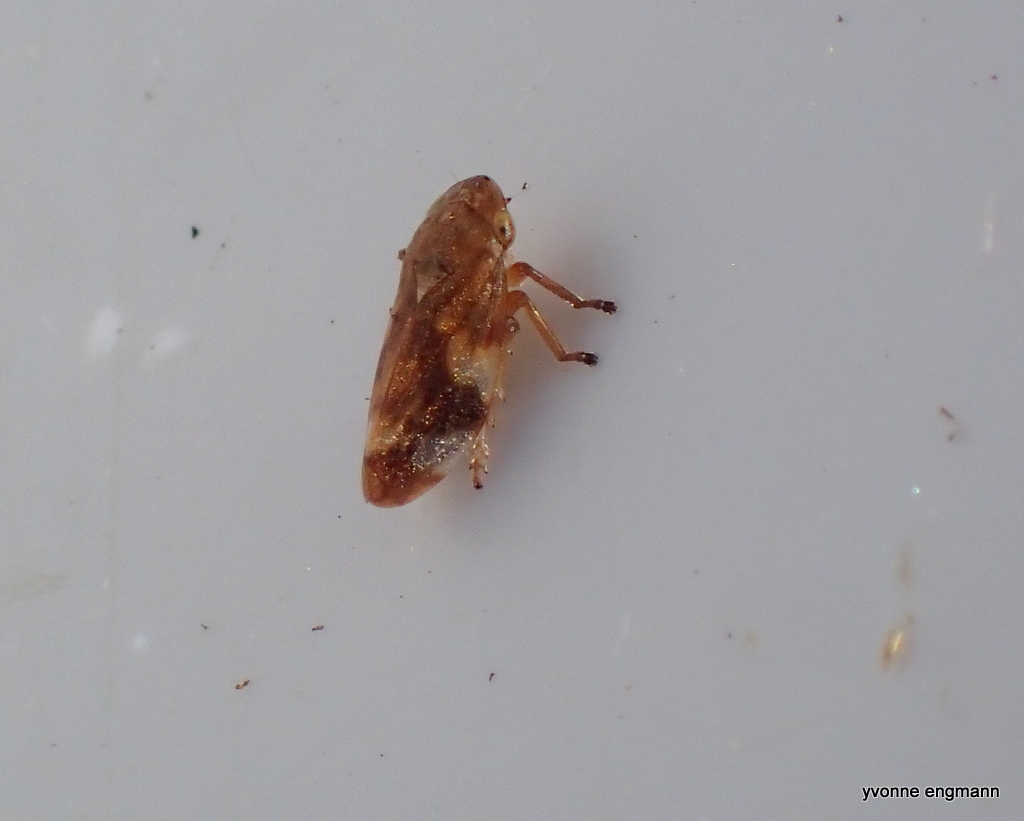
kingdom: Animalia
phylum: Arthropoda
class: Insecta
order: Hemiptera
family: Aphrophoridae
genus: Philaenus
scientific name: Philaenus spumarius
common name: Meadow spittlebug
